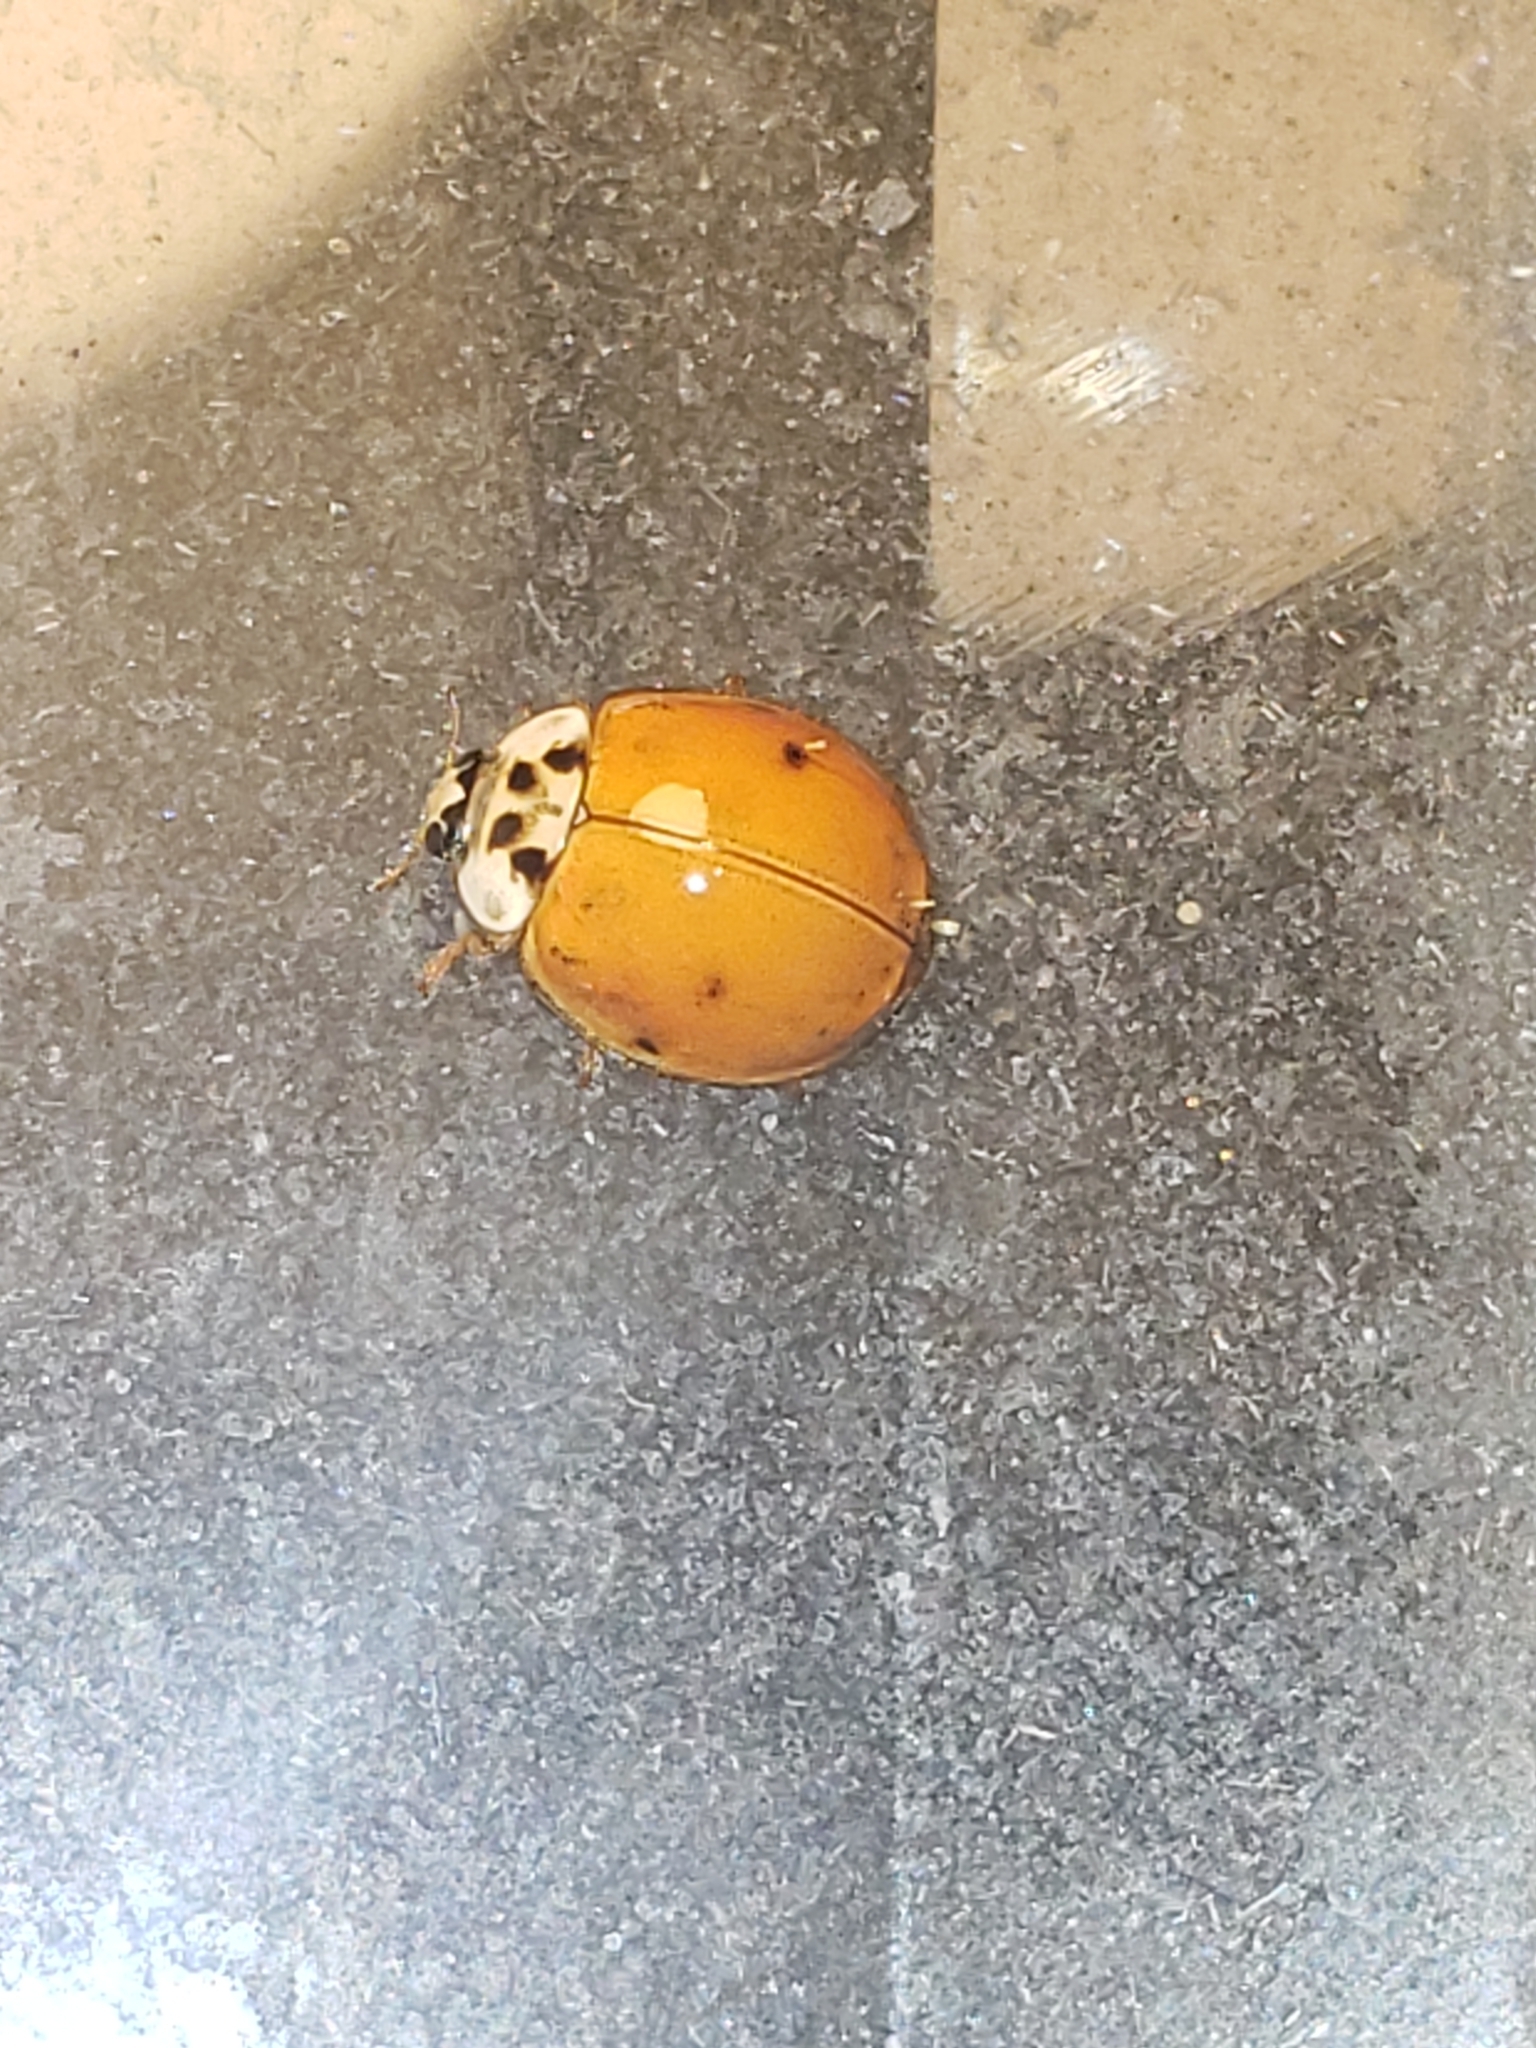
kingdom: Animalia
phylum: Arthropoda
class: Insecta
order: Coleoptera
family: Coccinellidae
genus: Harmonia
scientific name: Harmonia axyridis
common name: Harlequin ladybird
